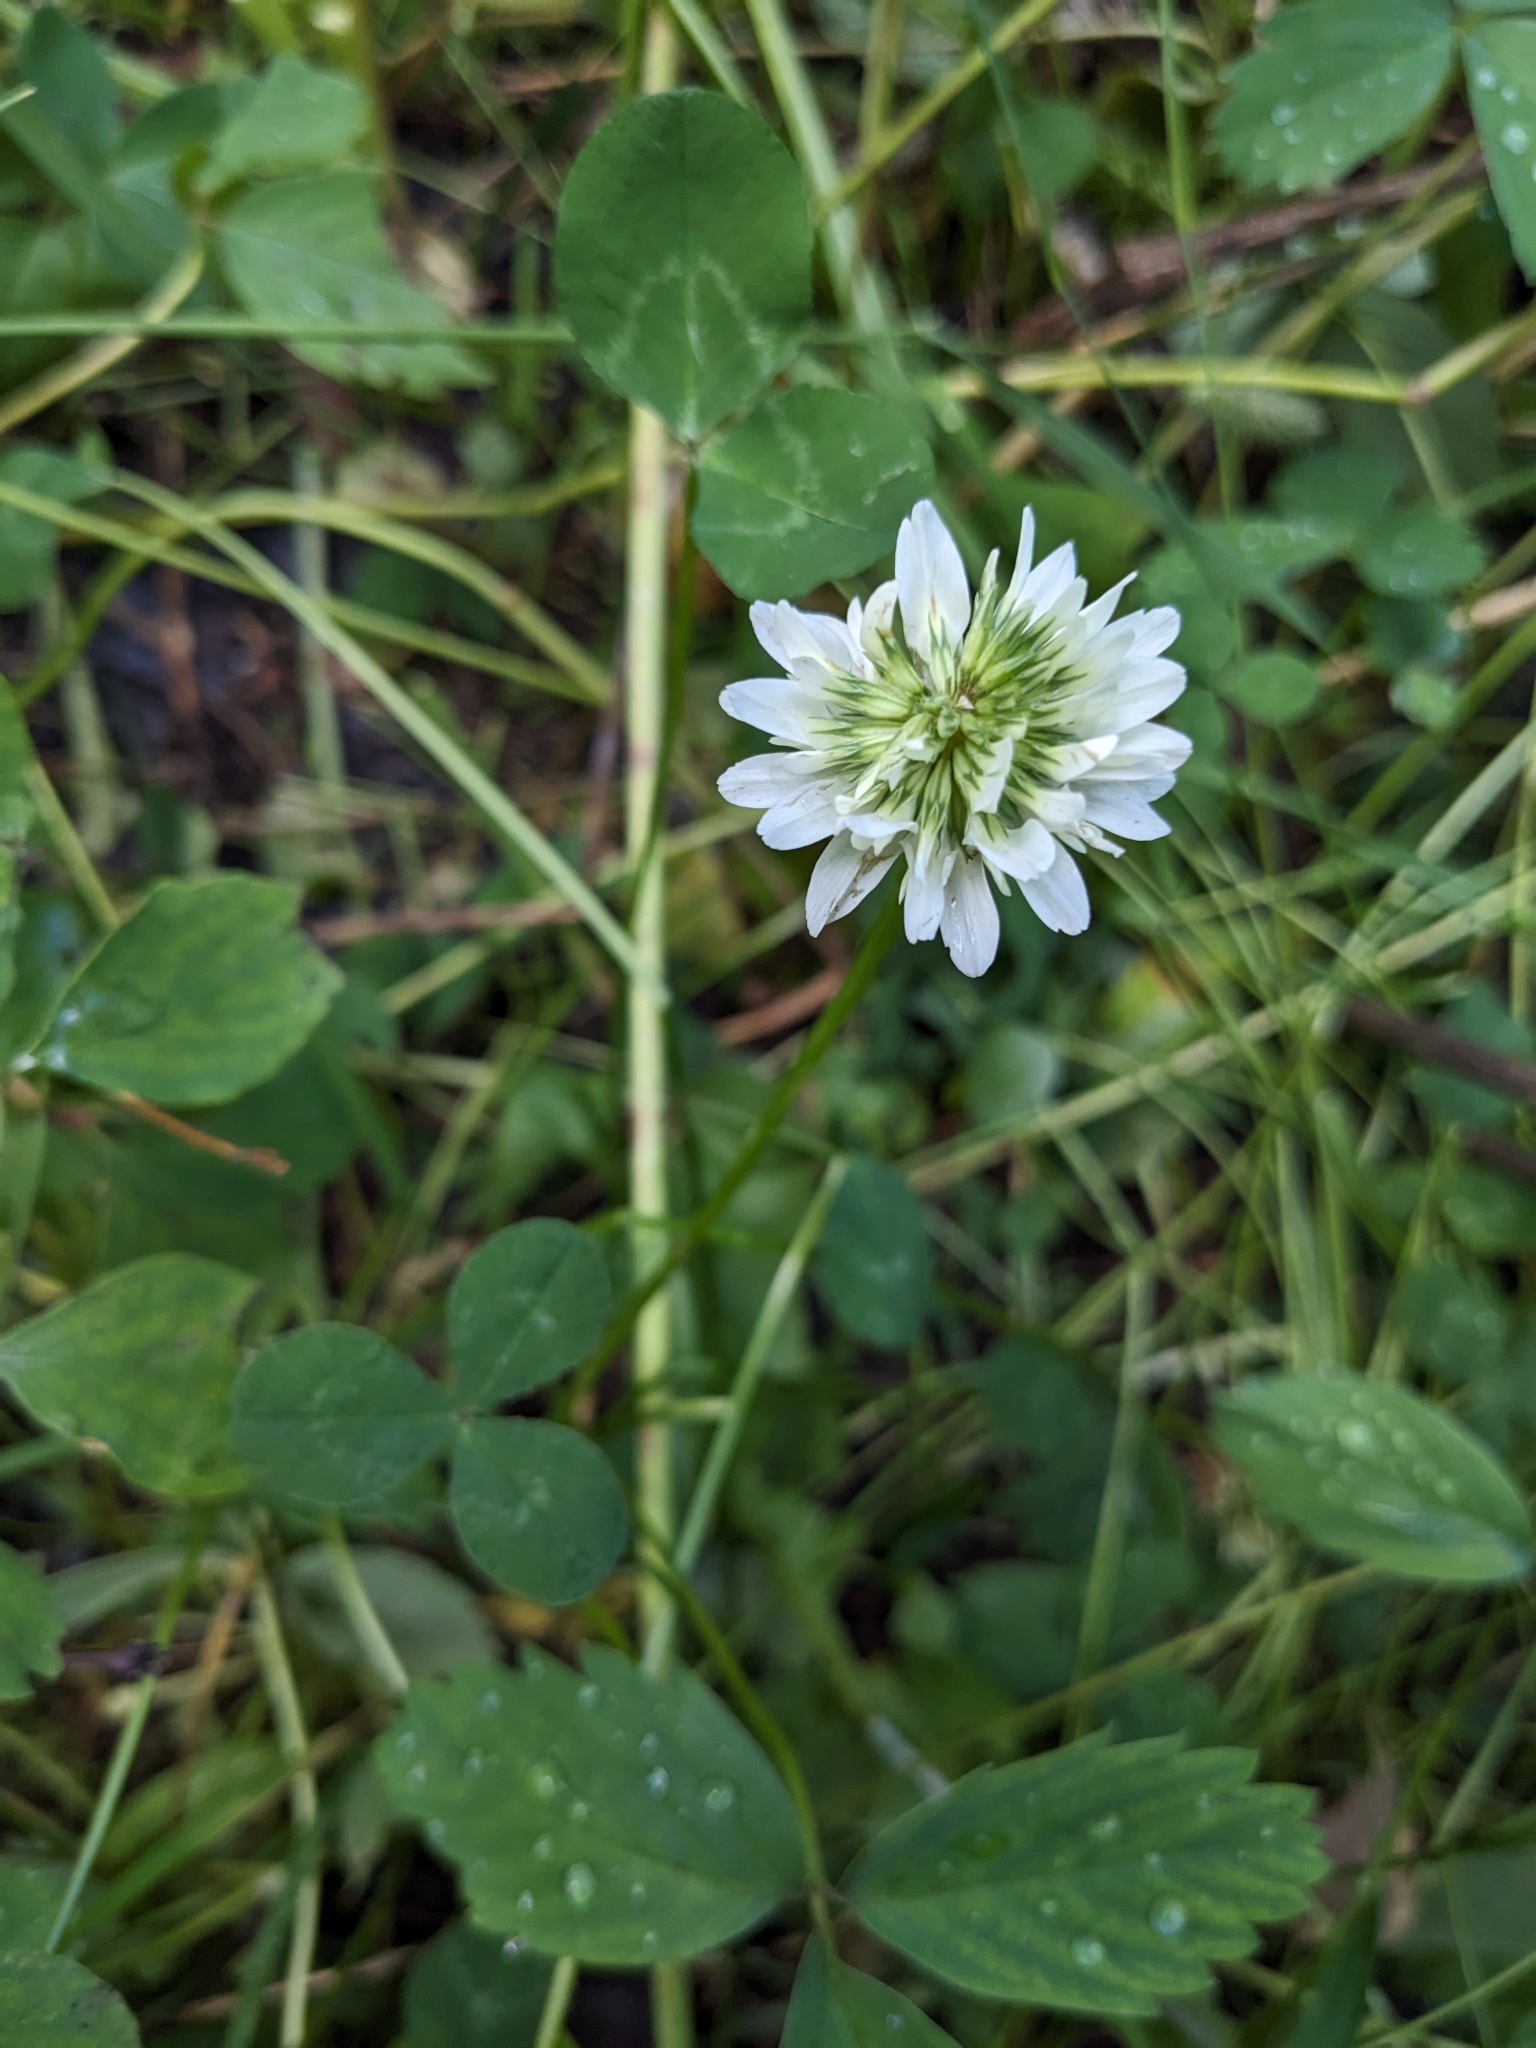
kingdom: Plantae
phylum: Tracheophyta
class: Magnoliopsida
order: Fabales
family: Fabaceae
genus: Trifolium
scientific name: Trifolium repens
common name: White clover
